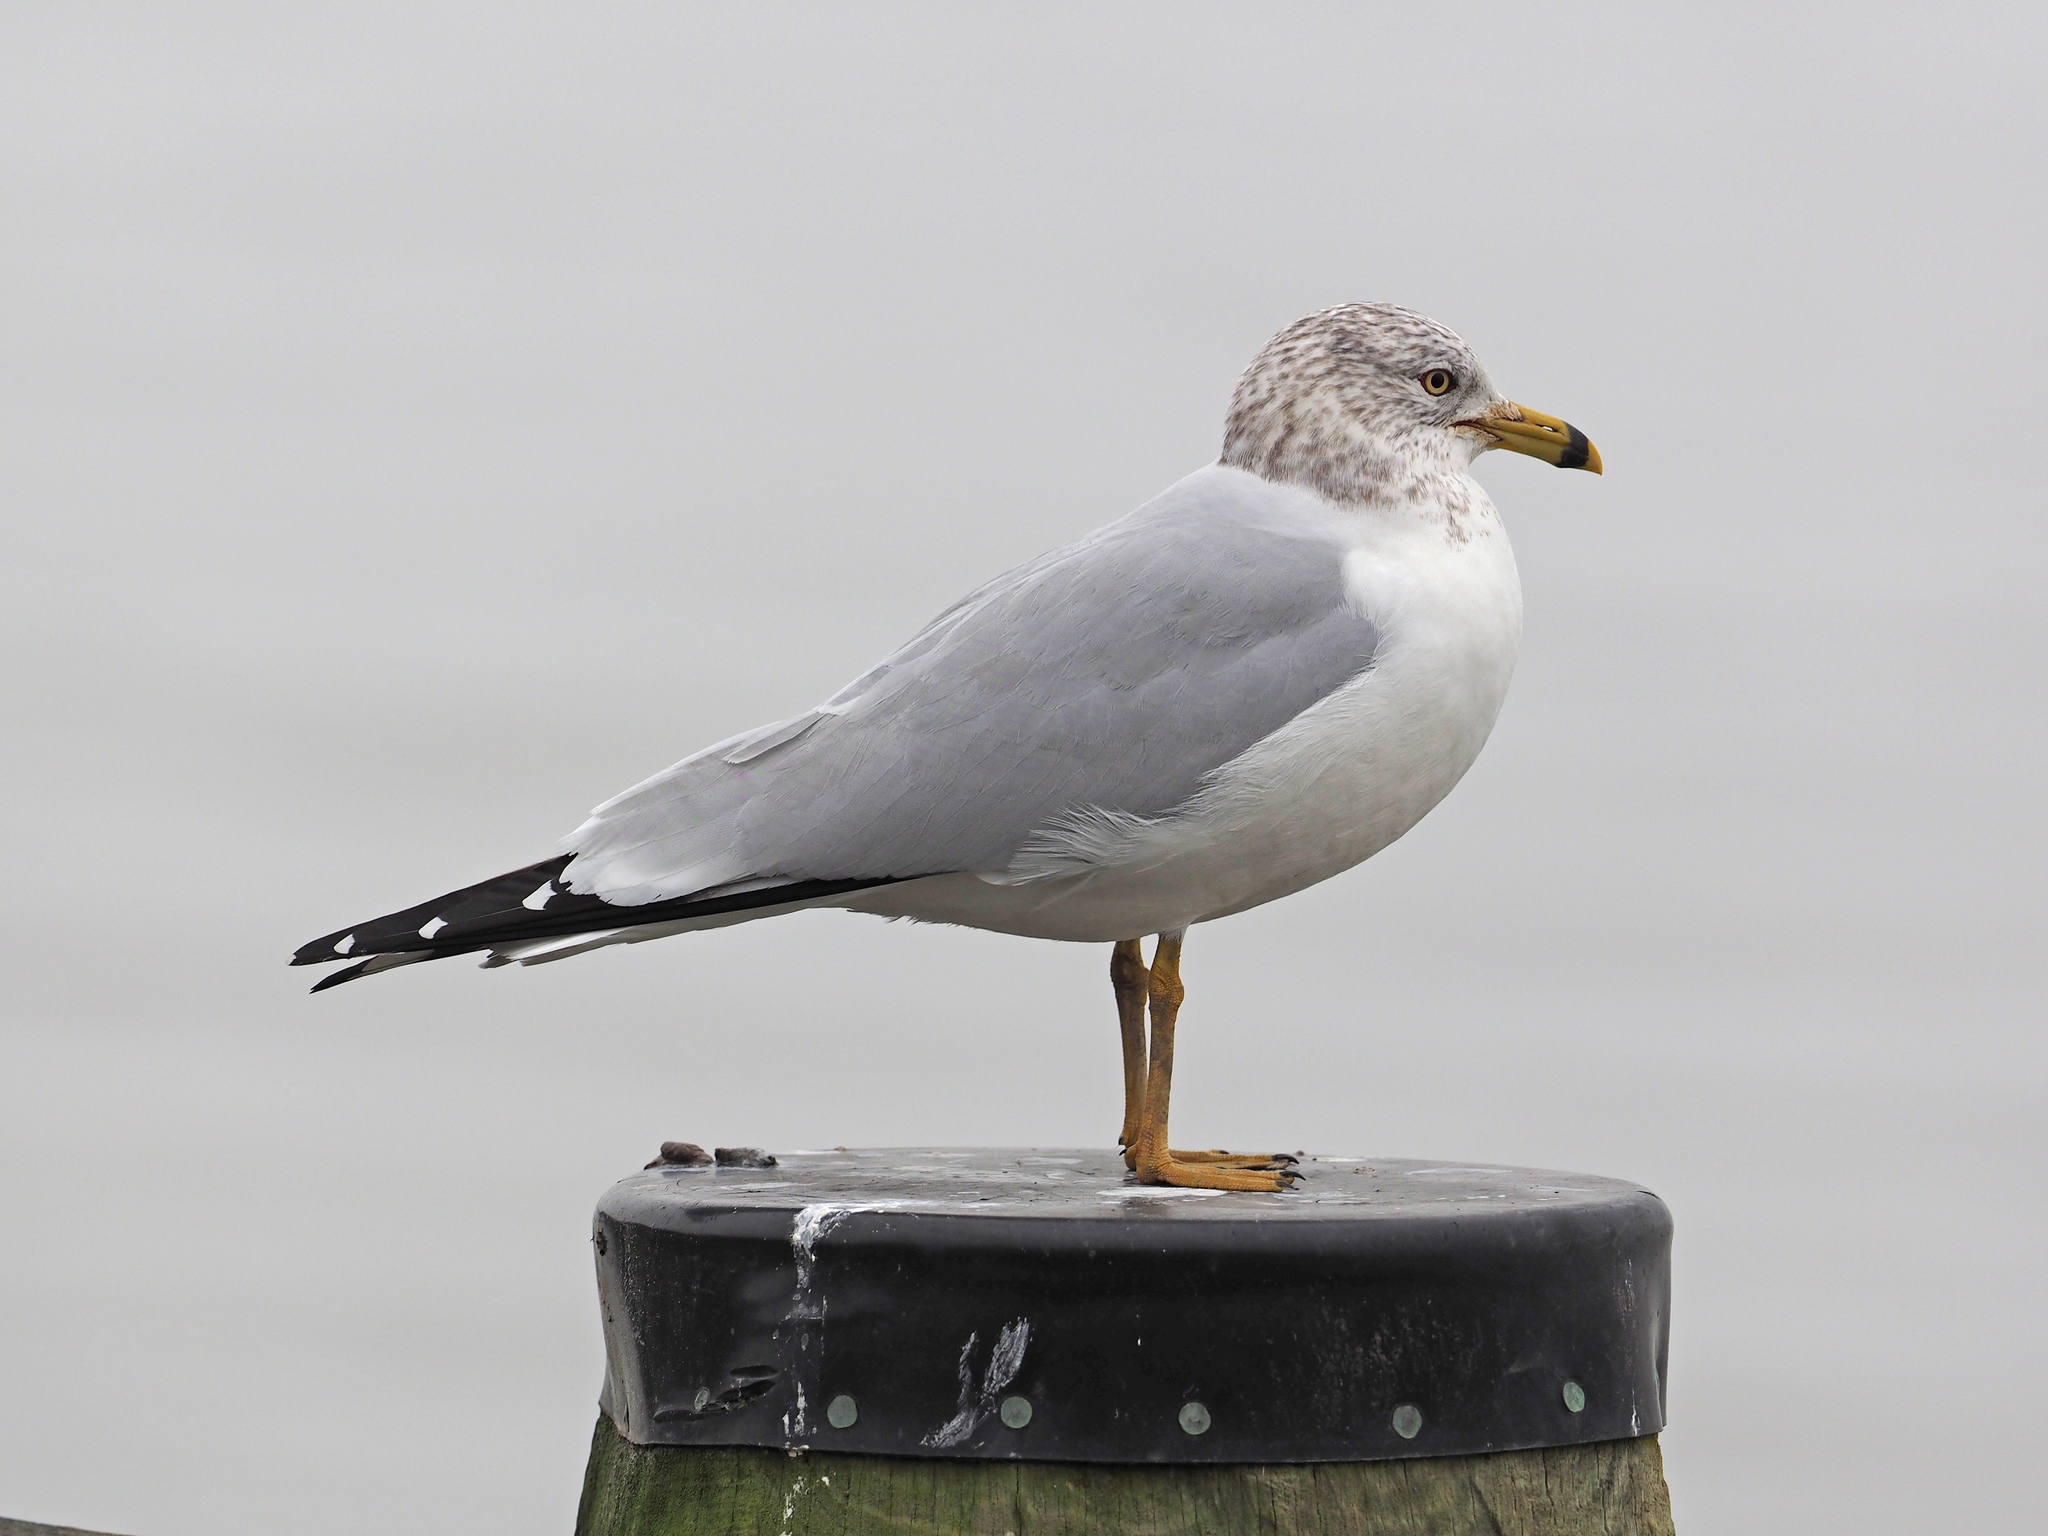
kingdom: Animalia
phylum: Chordata
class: Aves
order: Charadriiformes
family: Laridae
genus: Larus
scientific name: Larus delawarensis
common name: Ring-billed gull
